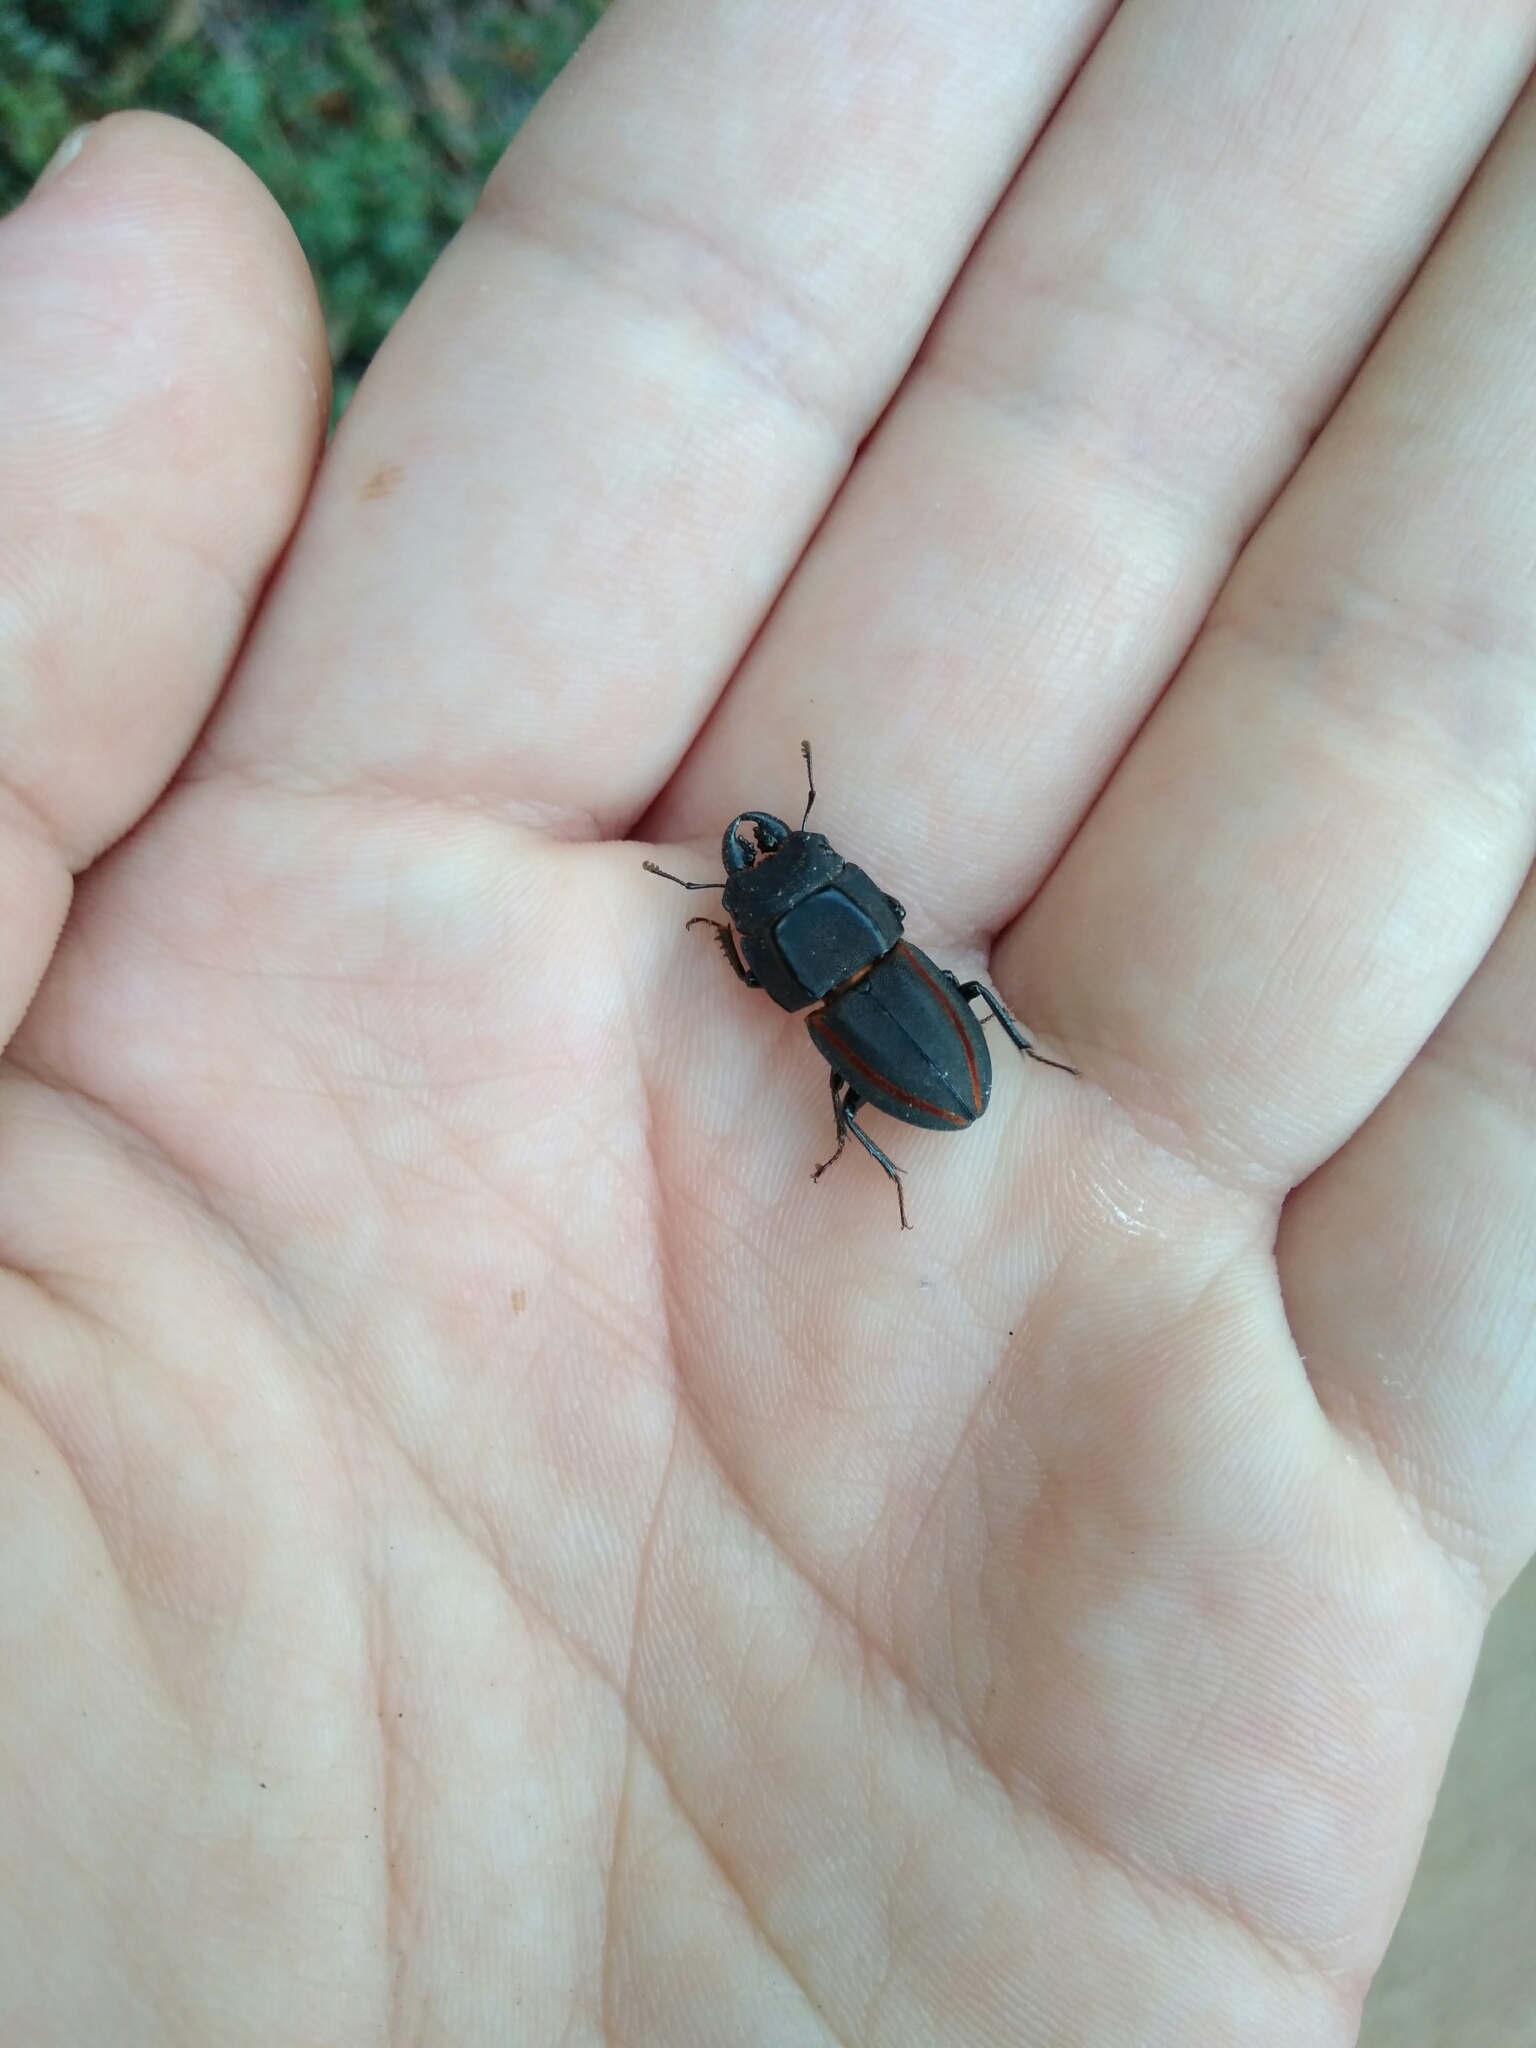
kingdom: Animalia
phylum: Arthropoda
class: Insecta
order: Coleoptera
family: Lucanidae
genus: Erichius
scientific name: Erichius vittatus
